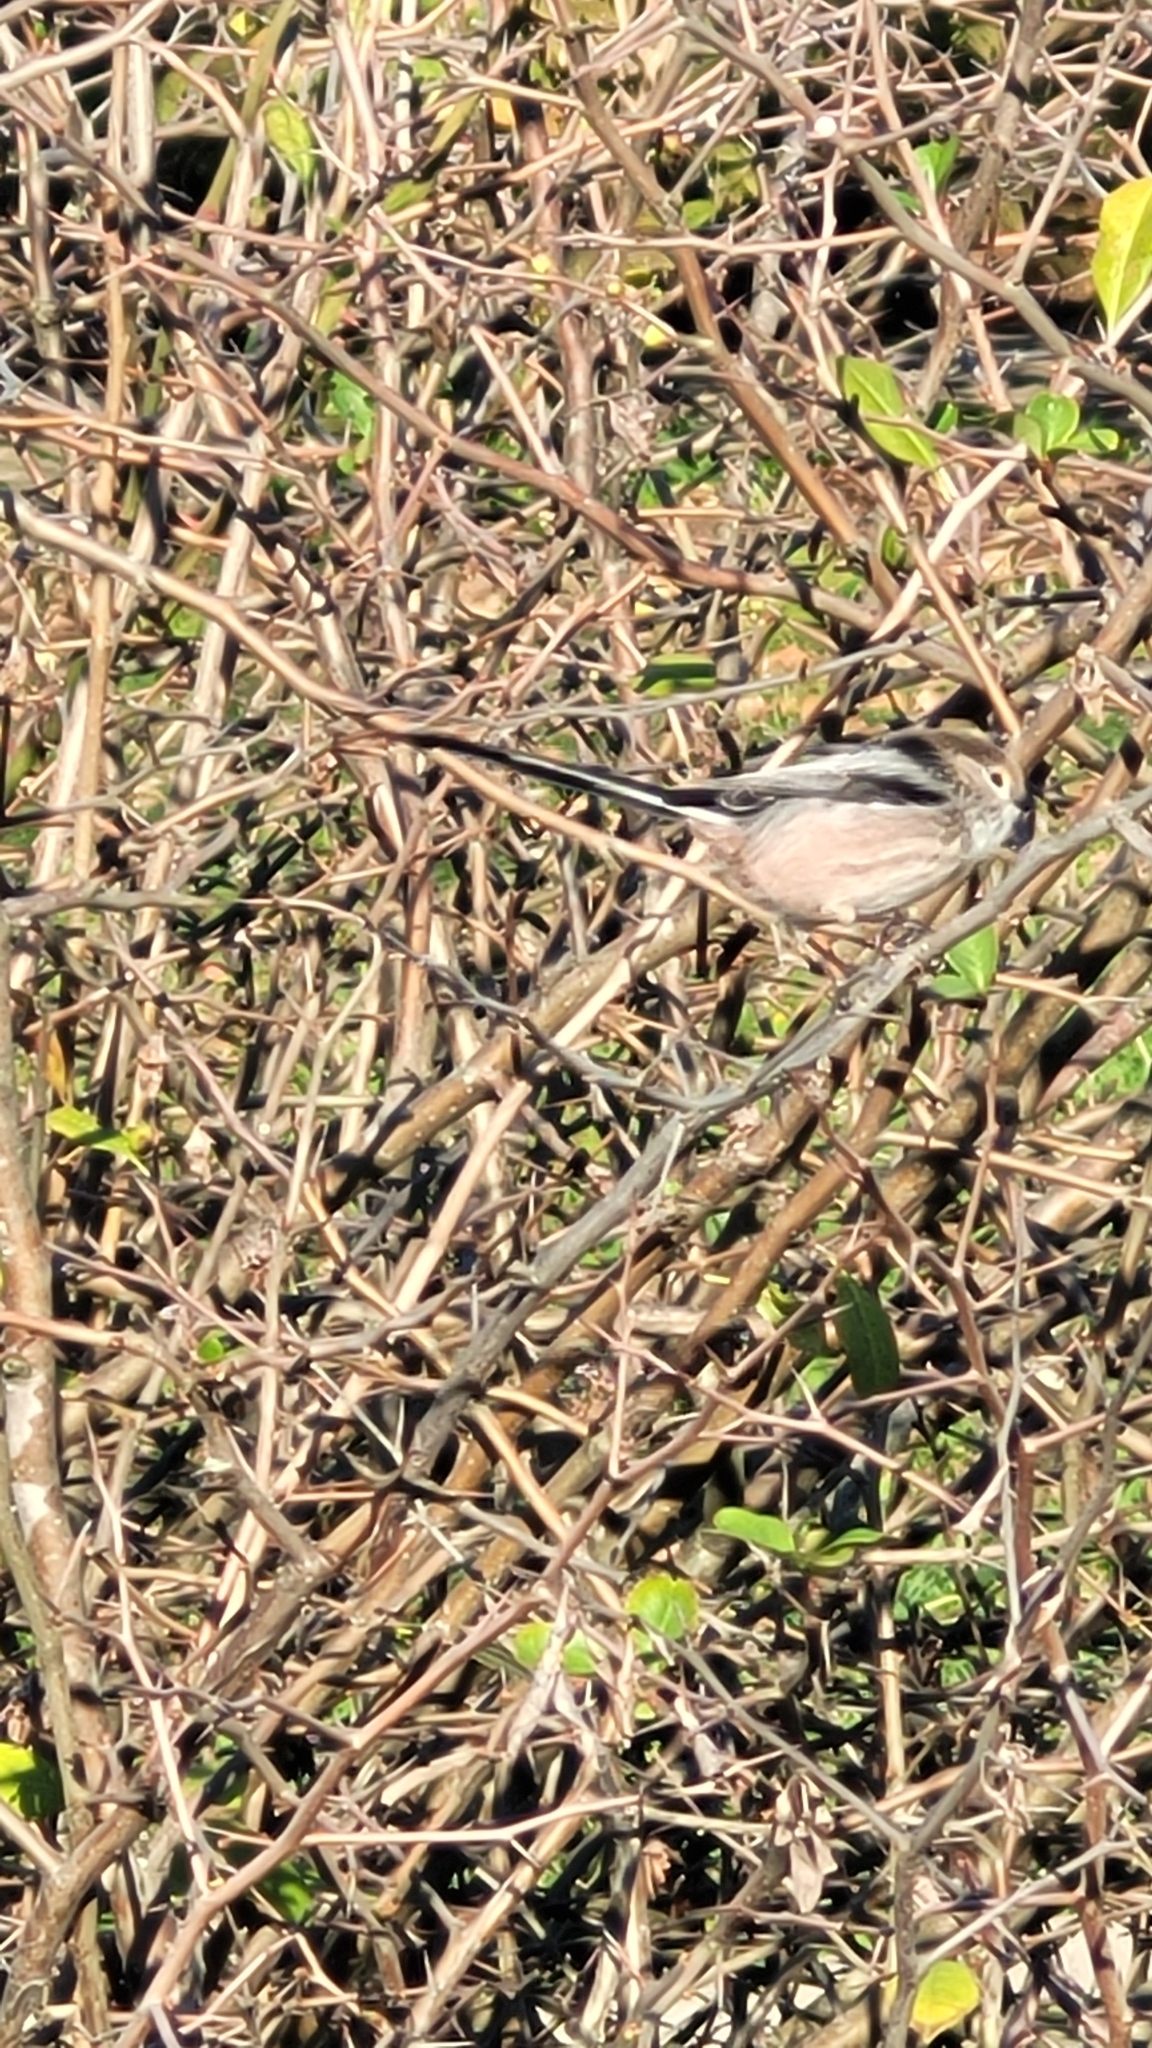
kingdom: Animalia
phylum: Chordata
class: Aves
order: Passeriformes
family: Aegithalidae
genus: Aegithalos
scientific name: Aegithalos caudatus
